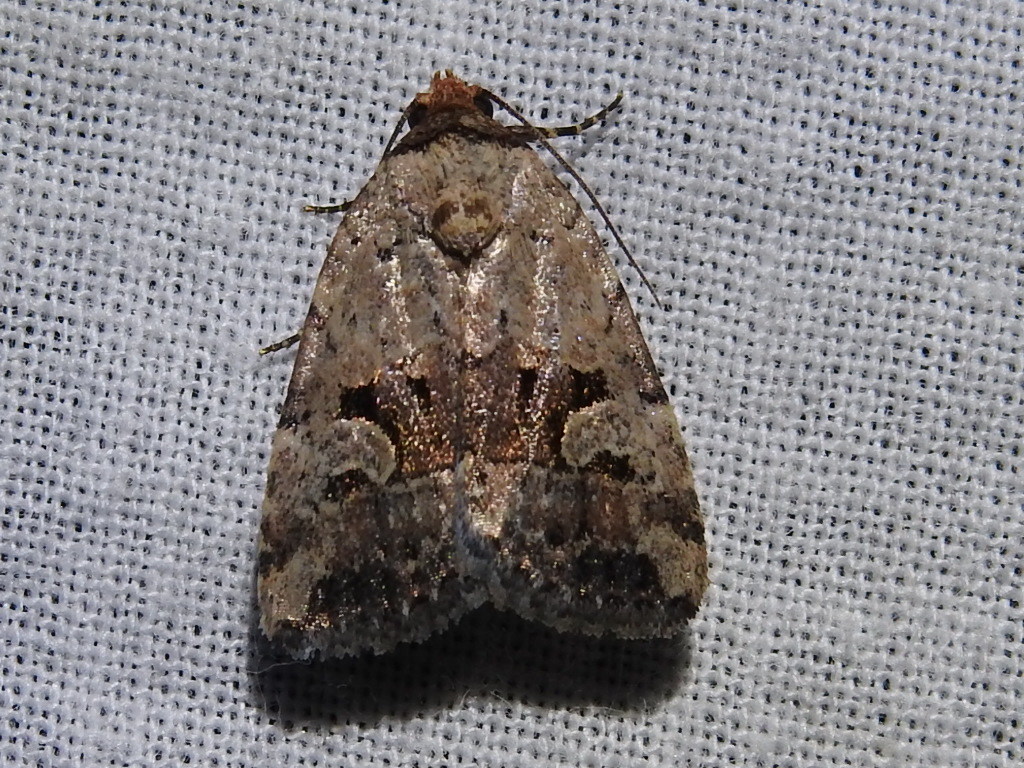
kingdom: Animalia
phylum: Arthropoda
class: Insecta
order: Lepidoptera
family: Noctuidae
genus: Elaphria
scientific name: Elaphria festivoides
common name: Festive midget
